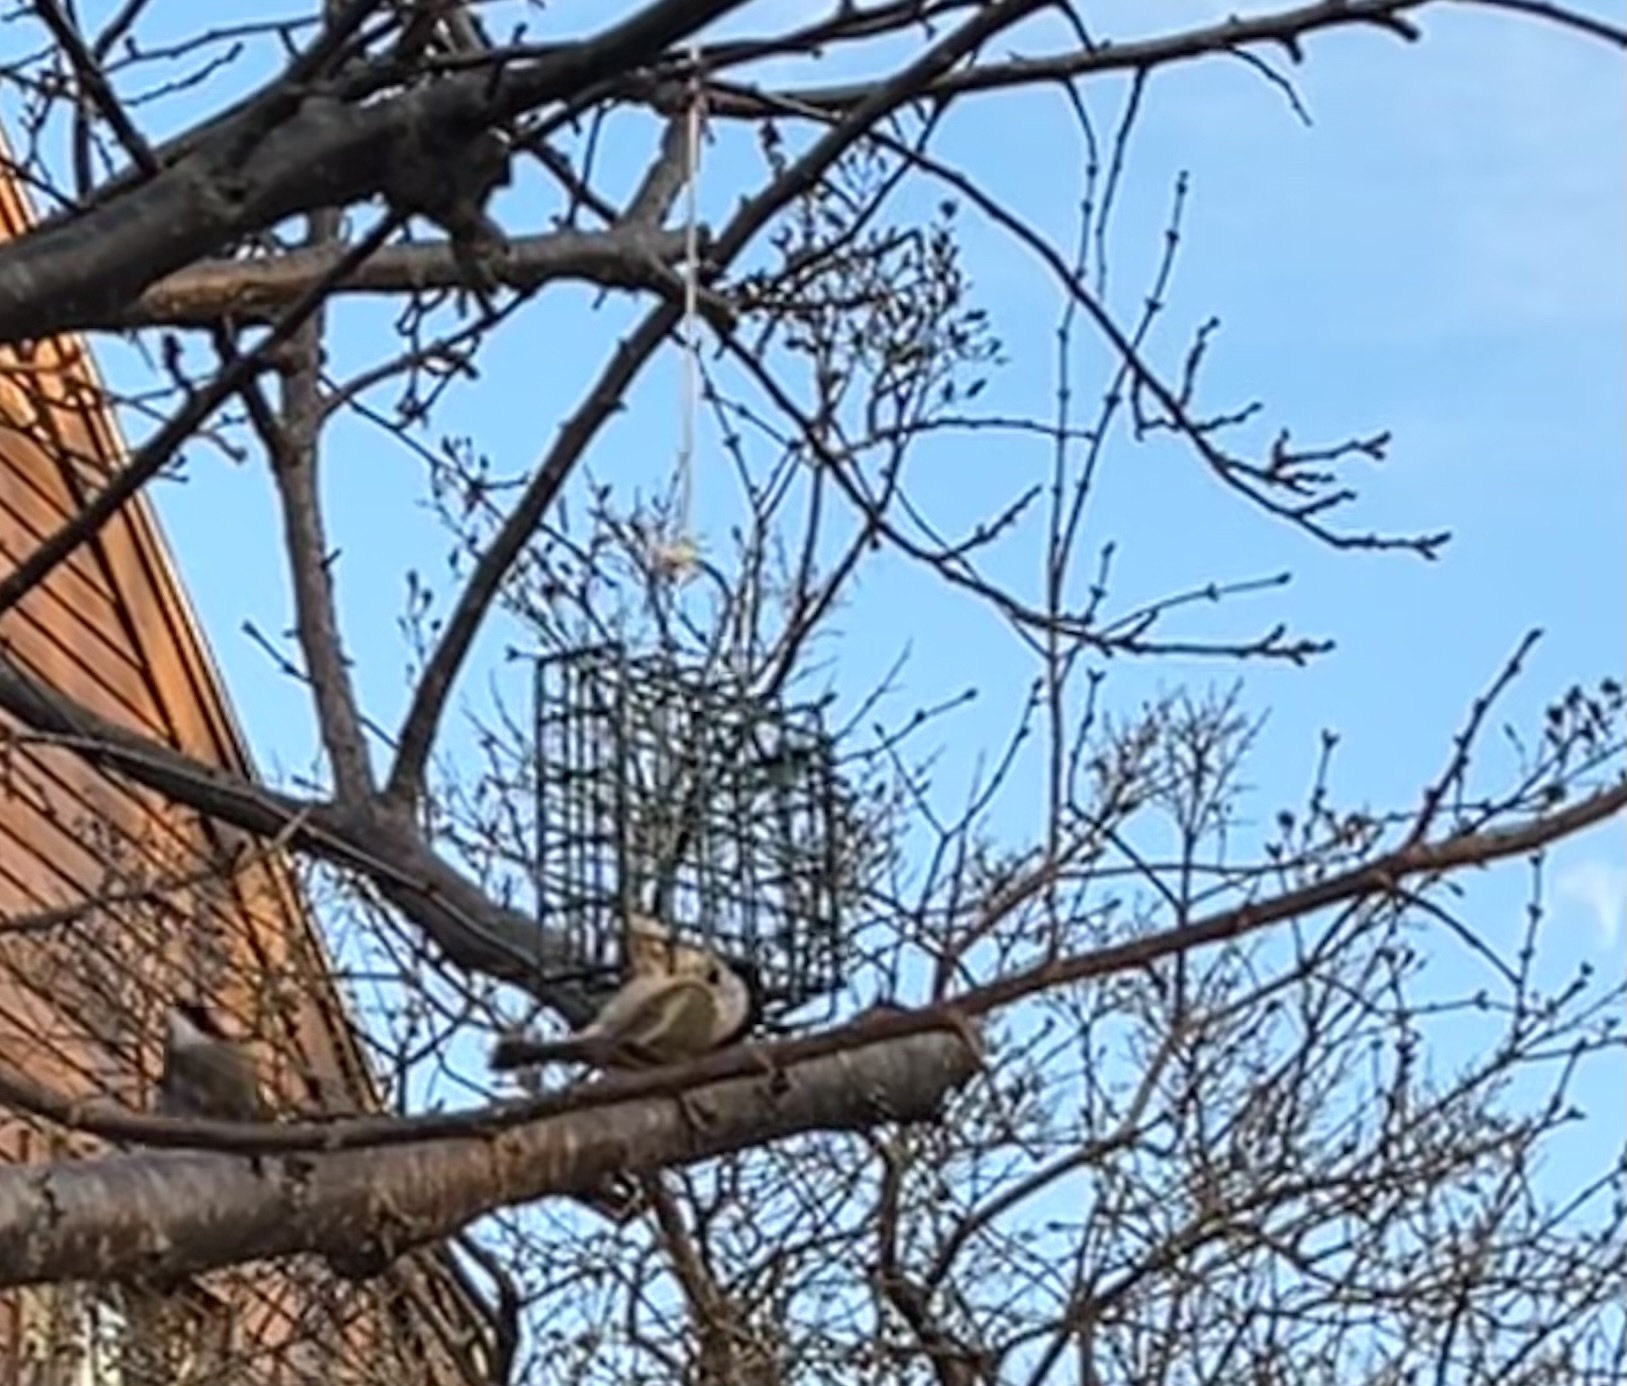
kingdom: Animalia
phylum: Chordata
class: Aves
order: Passeriformes
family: Paridae
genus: Poecile
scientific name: Poecile atricapillus
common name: Black-capped chickadee
